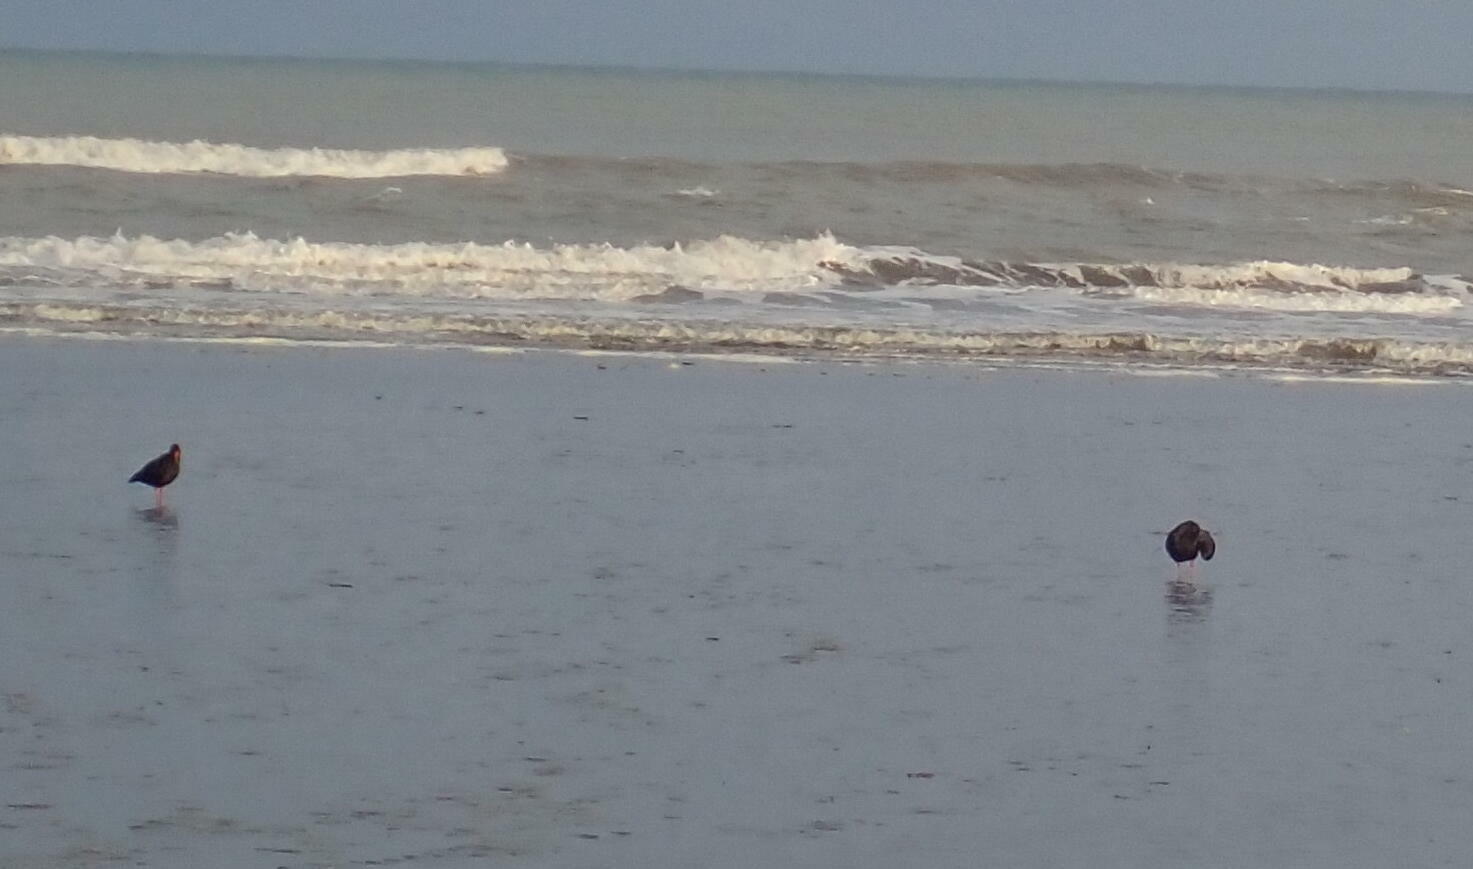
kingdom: Animalia
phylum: Chordata
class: Aves
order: Charadriiformes
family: Haematopodidae
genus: Haematopus
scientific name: Haematopus unicolor
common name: Variable oystercatcher
